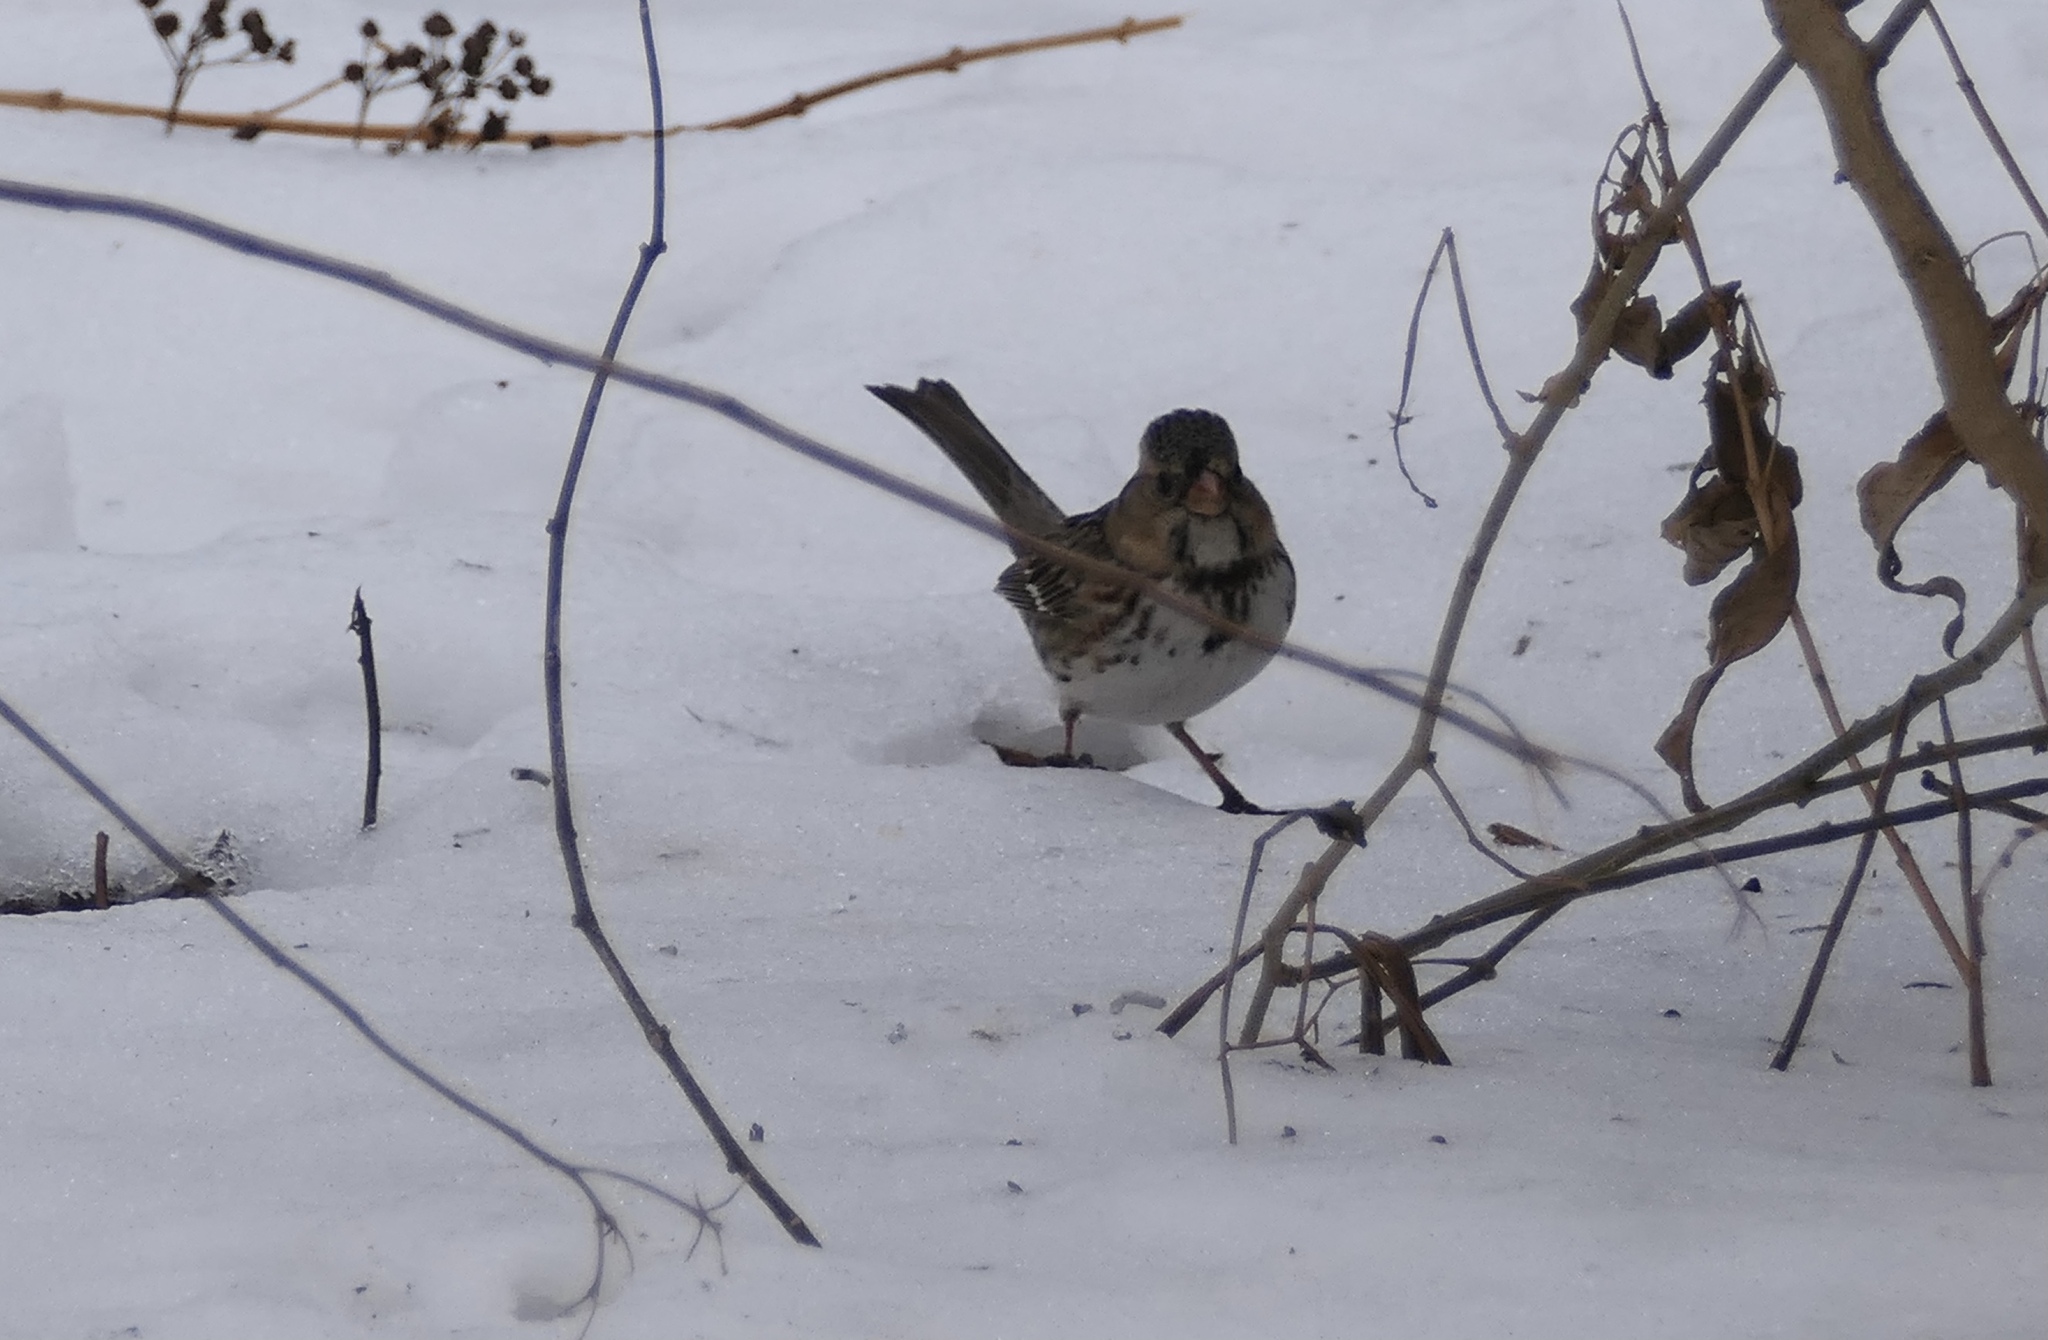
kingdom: Animalia
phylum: Chordata
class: Aves
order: Passeriformes
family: Passerellidae
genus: Zonotrichia
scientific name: Zonotrichia querula
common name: Harris's sparrow
